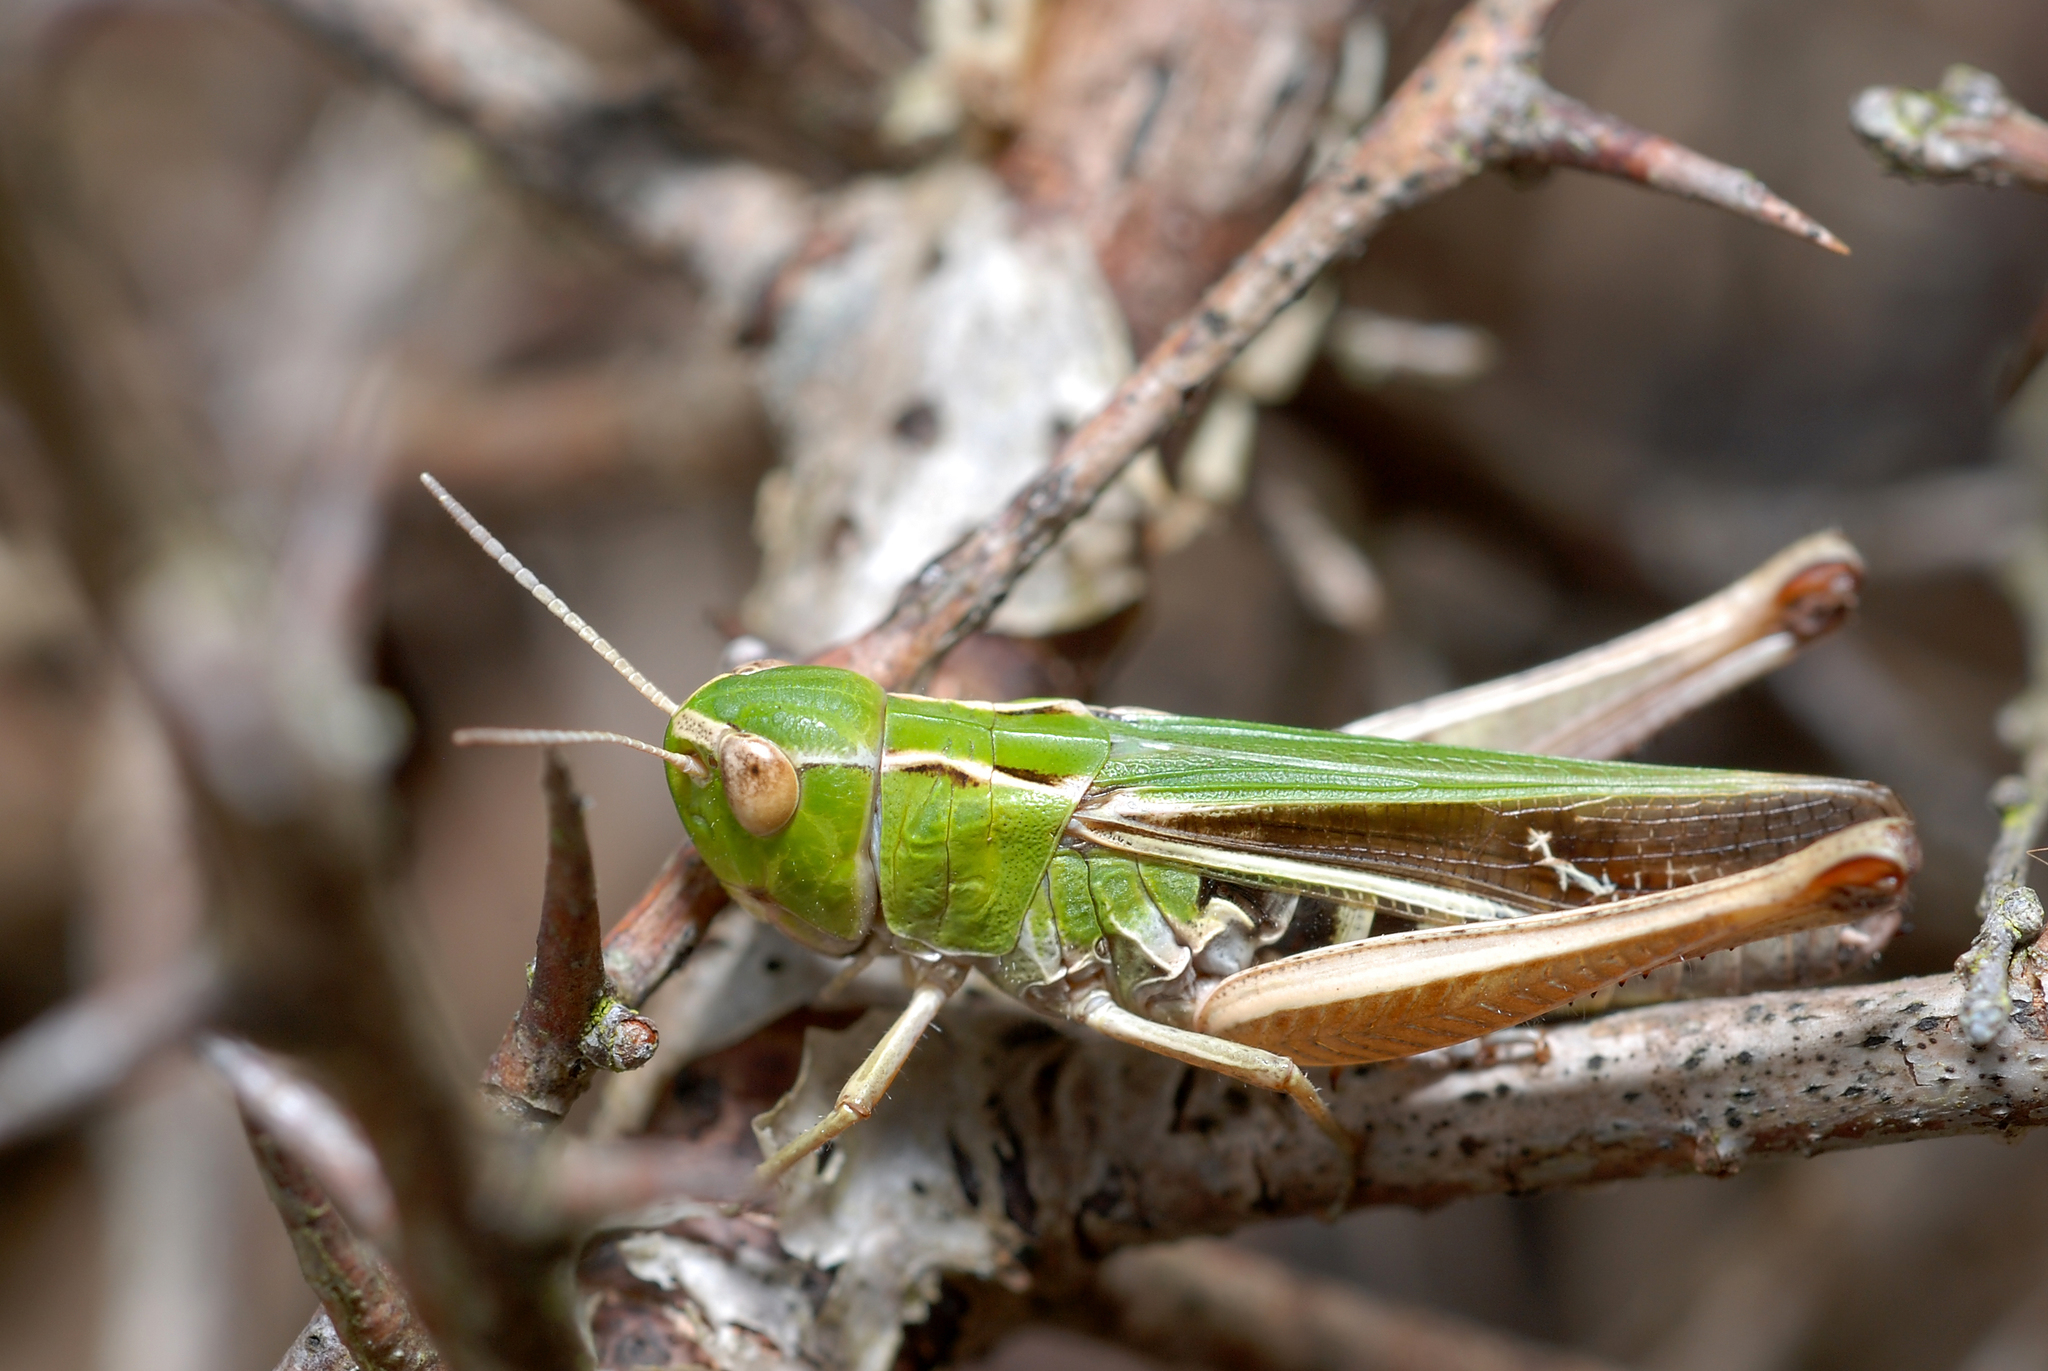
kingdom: Animalia
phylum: Arthropoda
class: Insecta
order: Orthoptera
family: Acrididae
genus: Stenobothrus
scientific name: Stenobothrus lineatus
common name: Stripe-winged grasshopper
